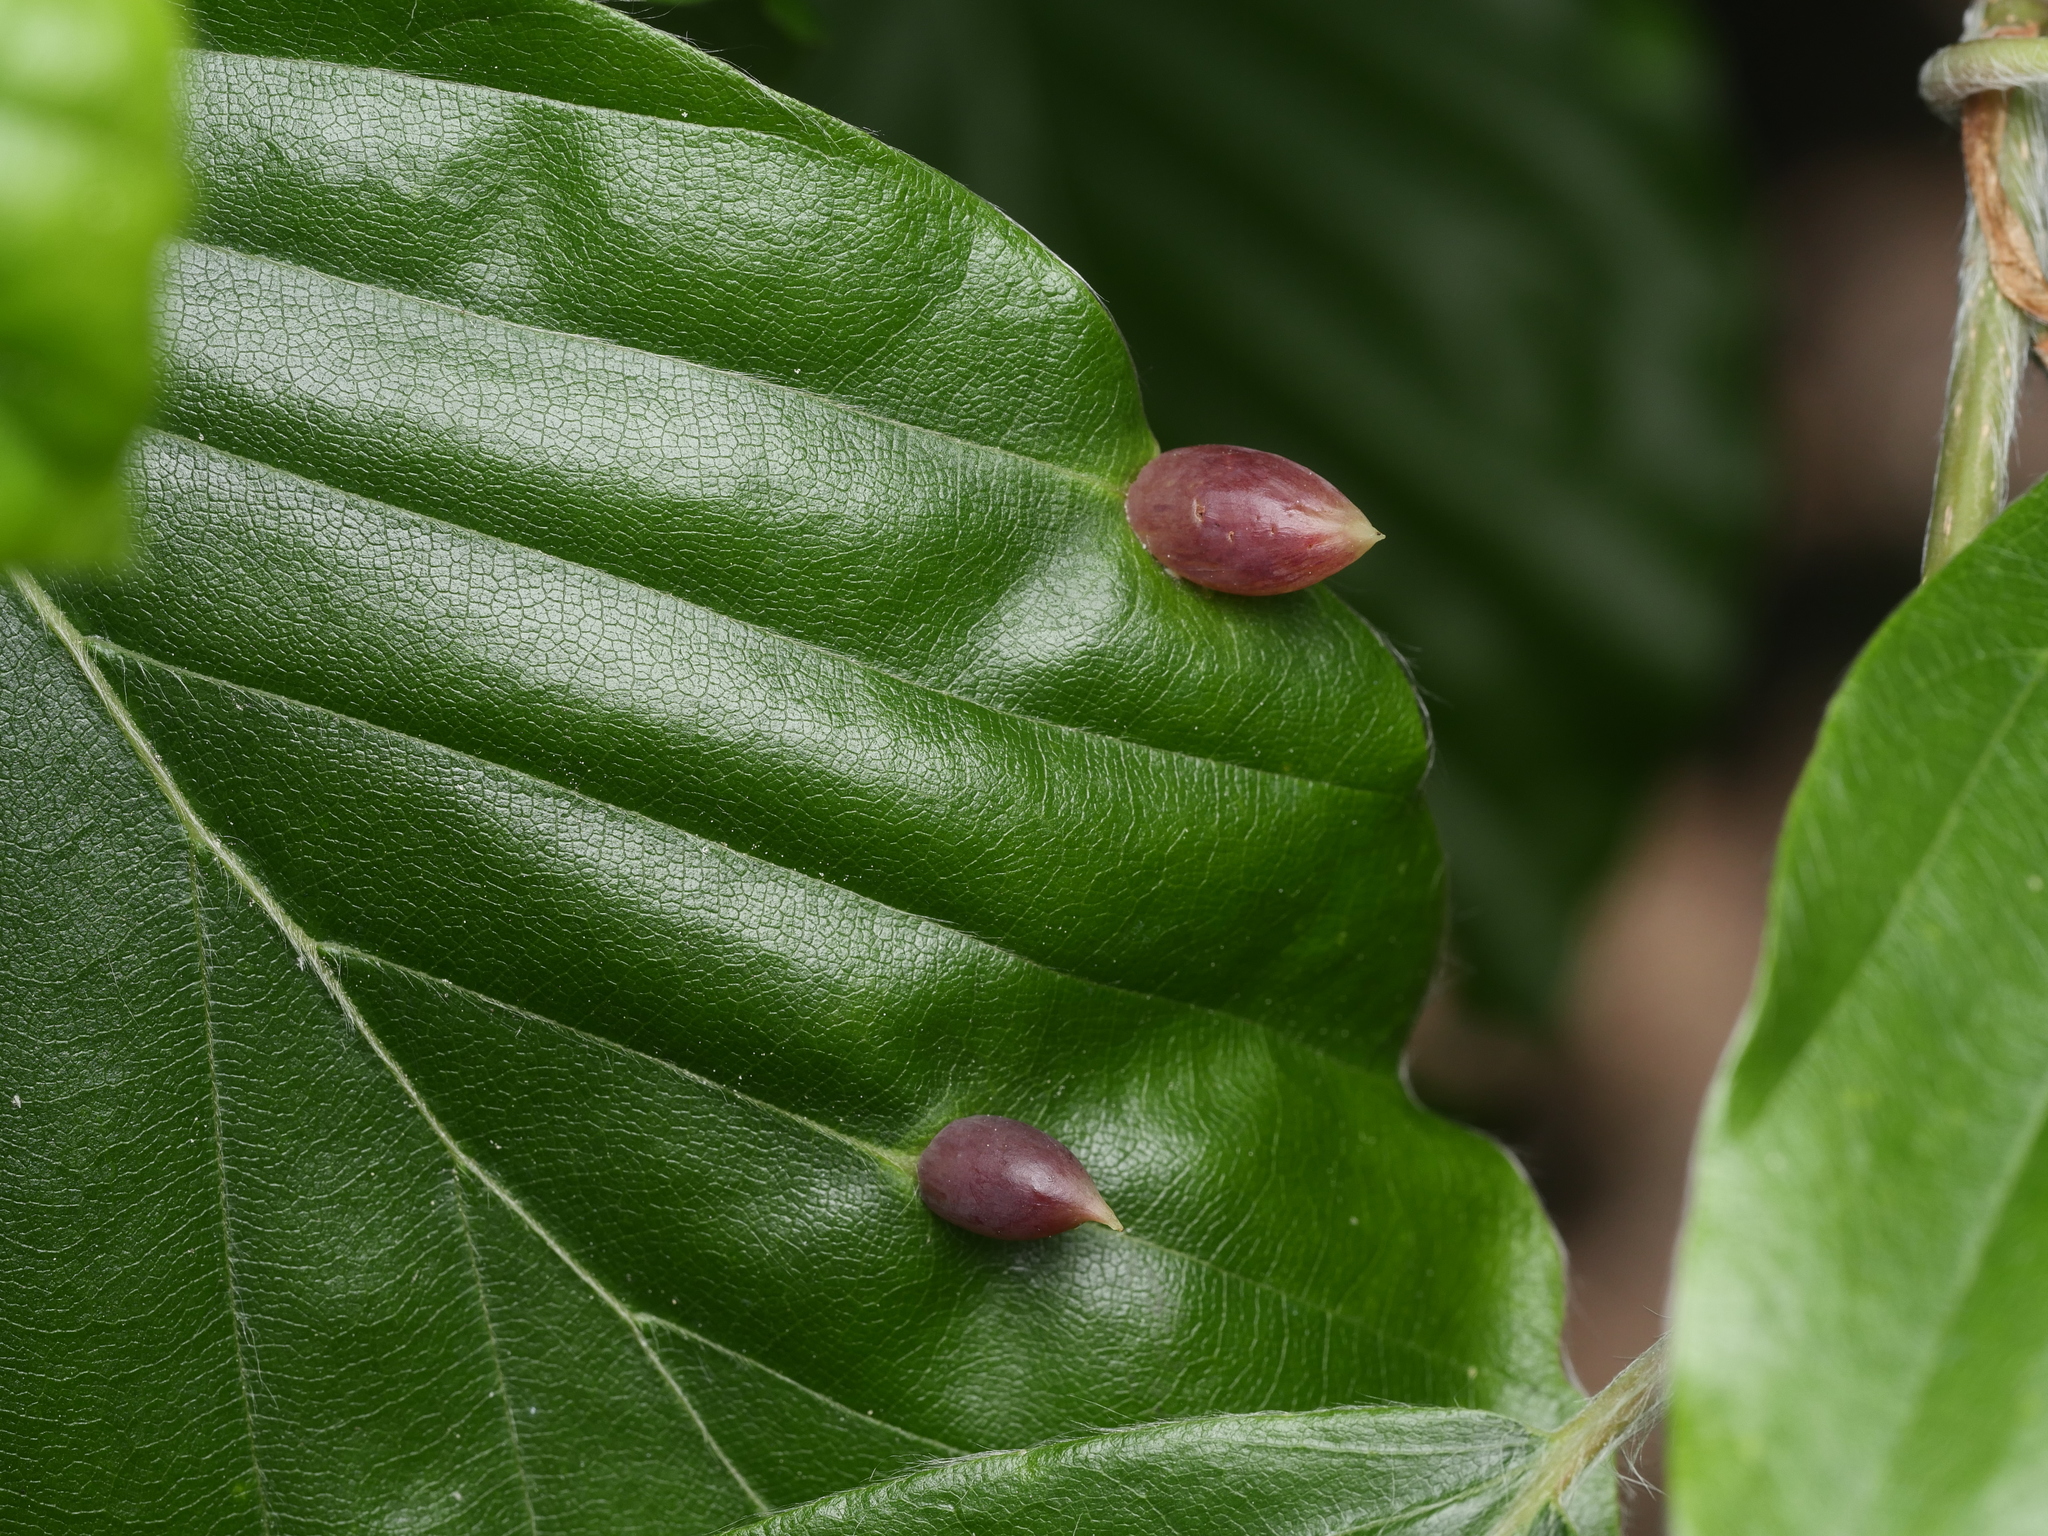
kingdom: Animalia
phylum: Arthropoda
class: Insecta
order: Diptera
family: Cecidomyiidae
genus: Mikiola
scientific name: Mikiola fagi
